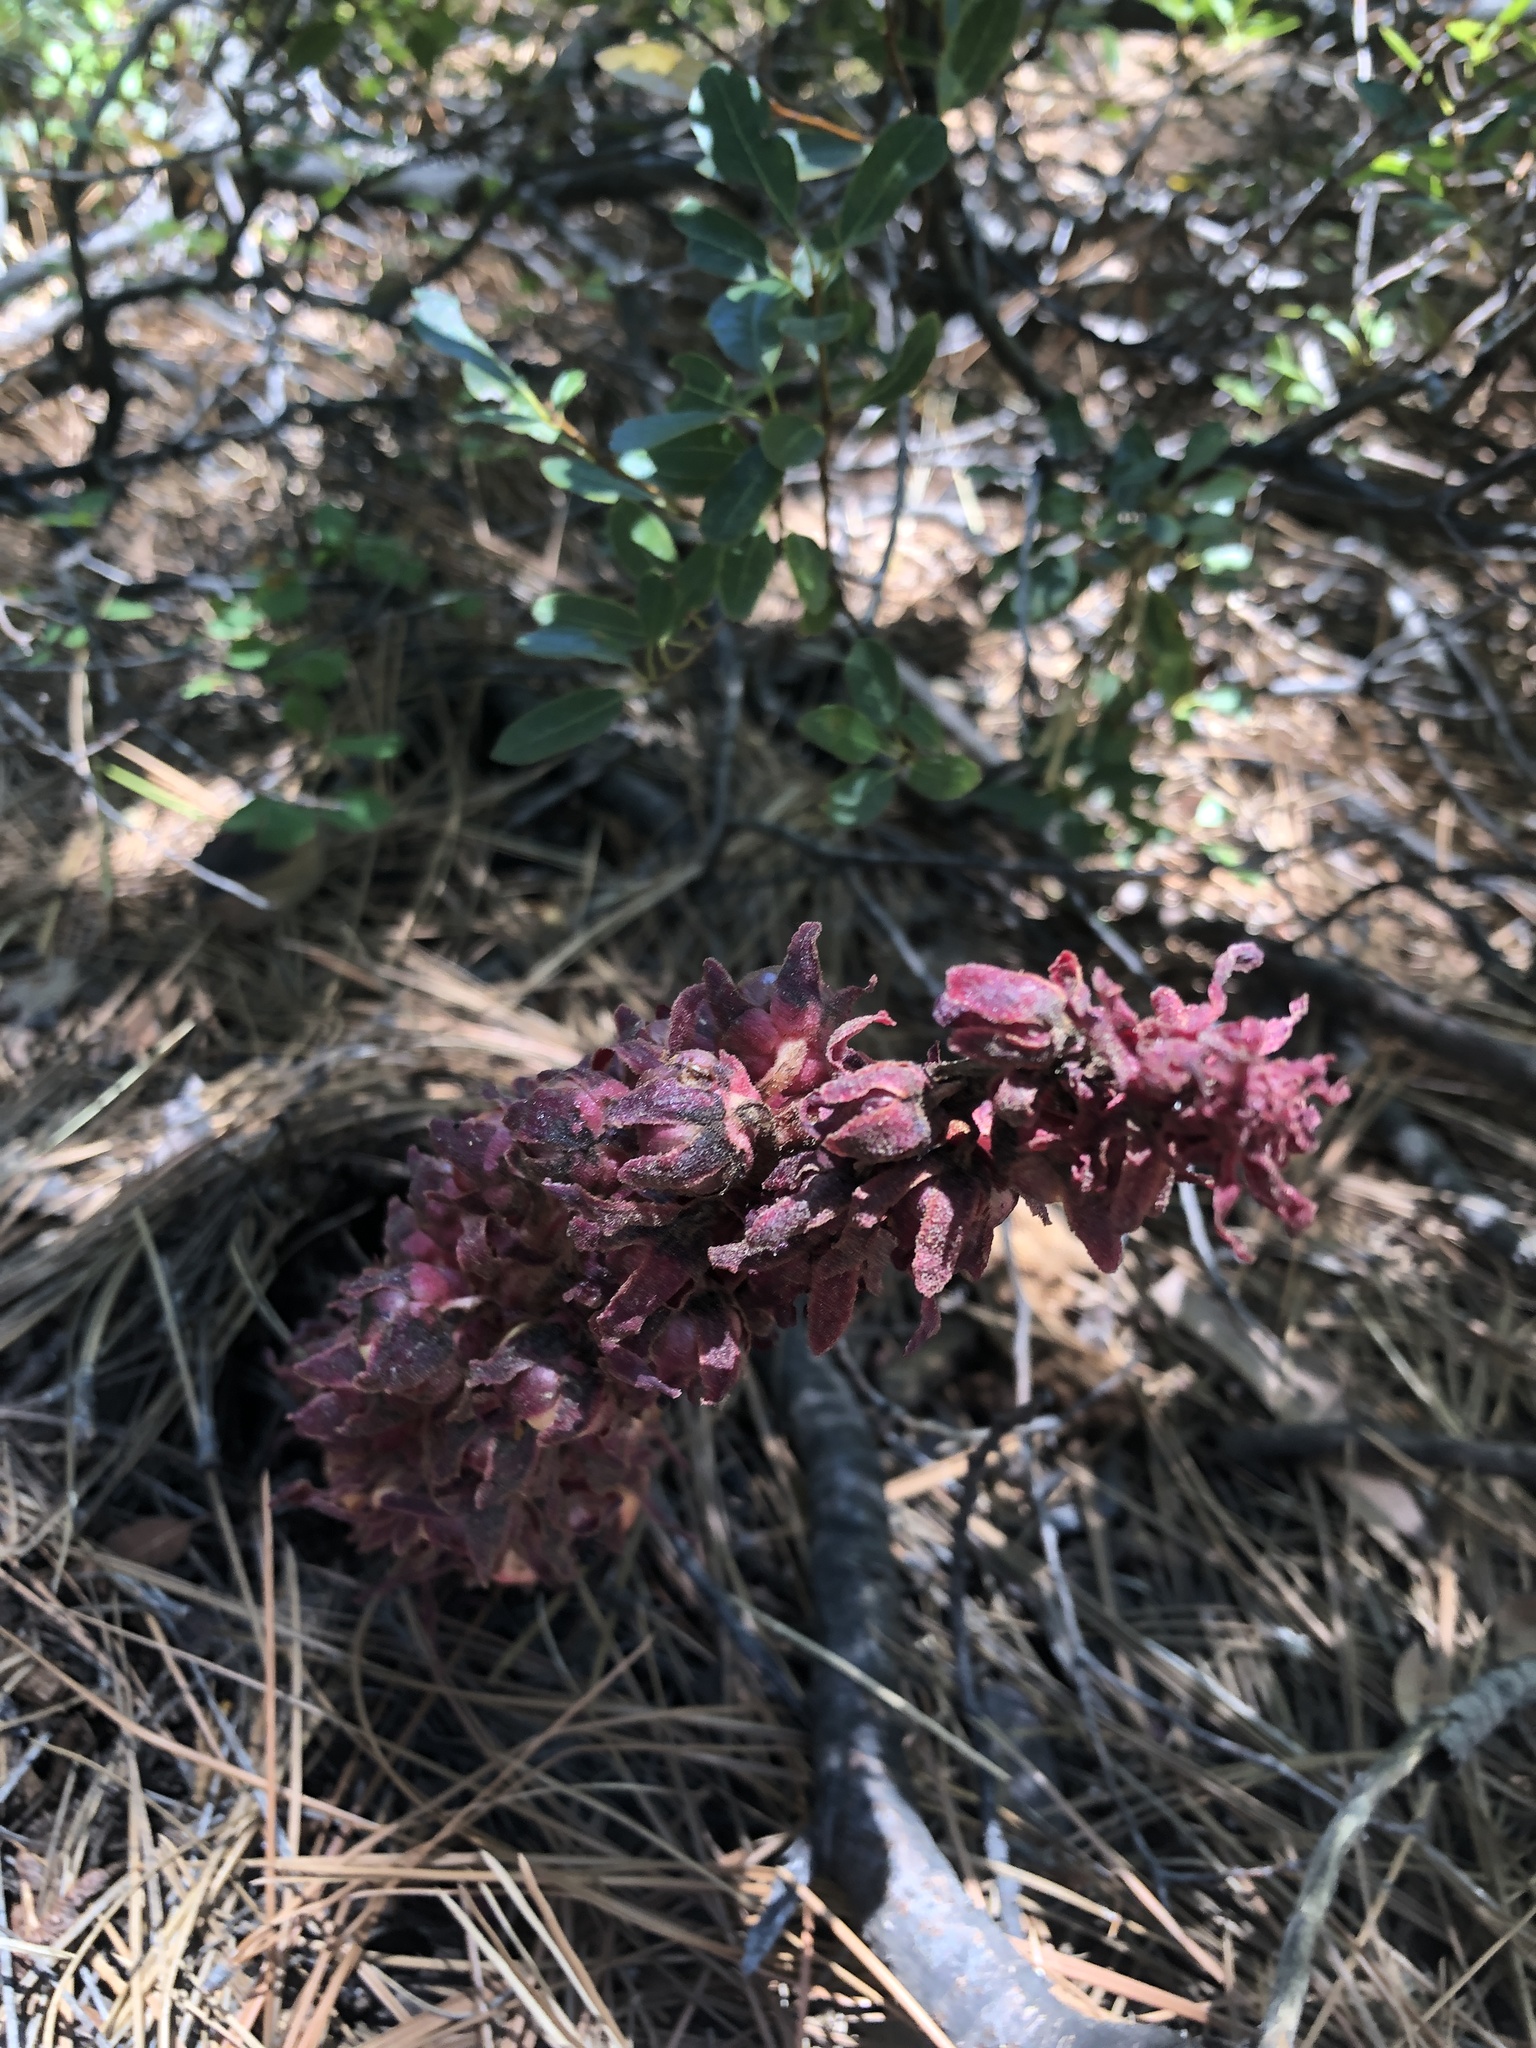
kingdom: Plantae
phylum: Tracheophyta
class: Magnoliopsida
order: Ericales
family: Ericaceae
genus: Sarcodes
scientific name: Sarcodes sanguinea
